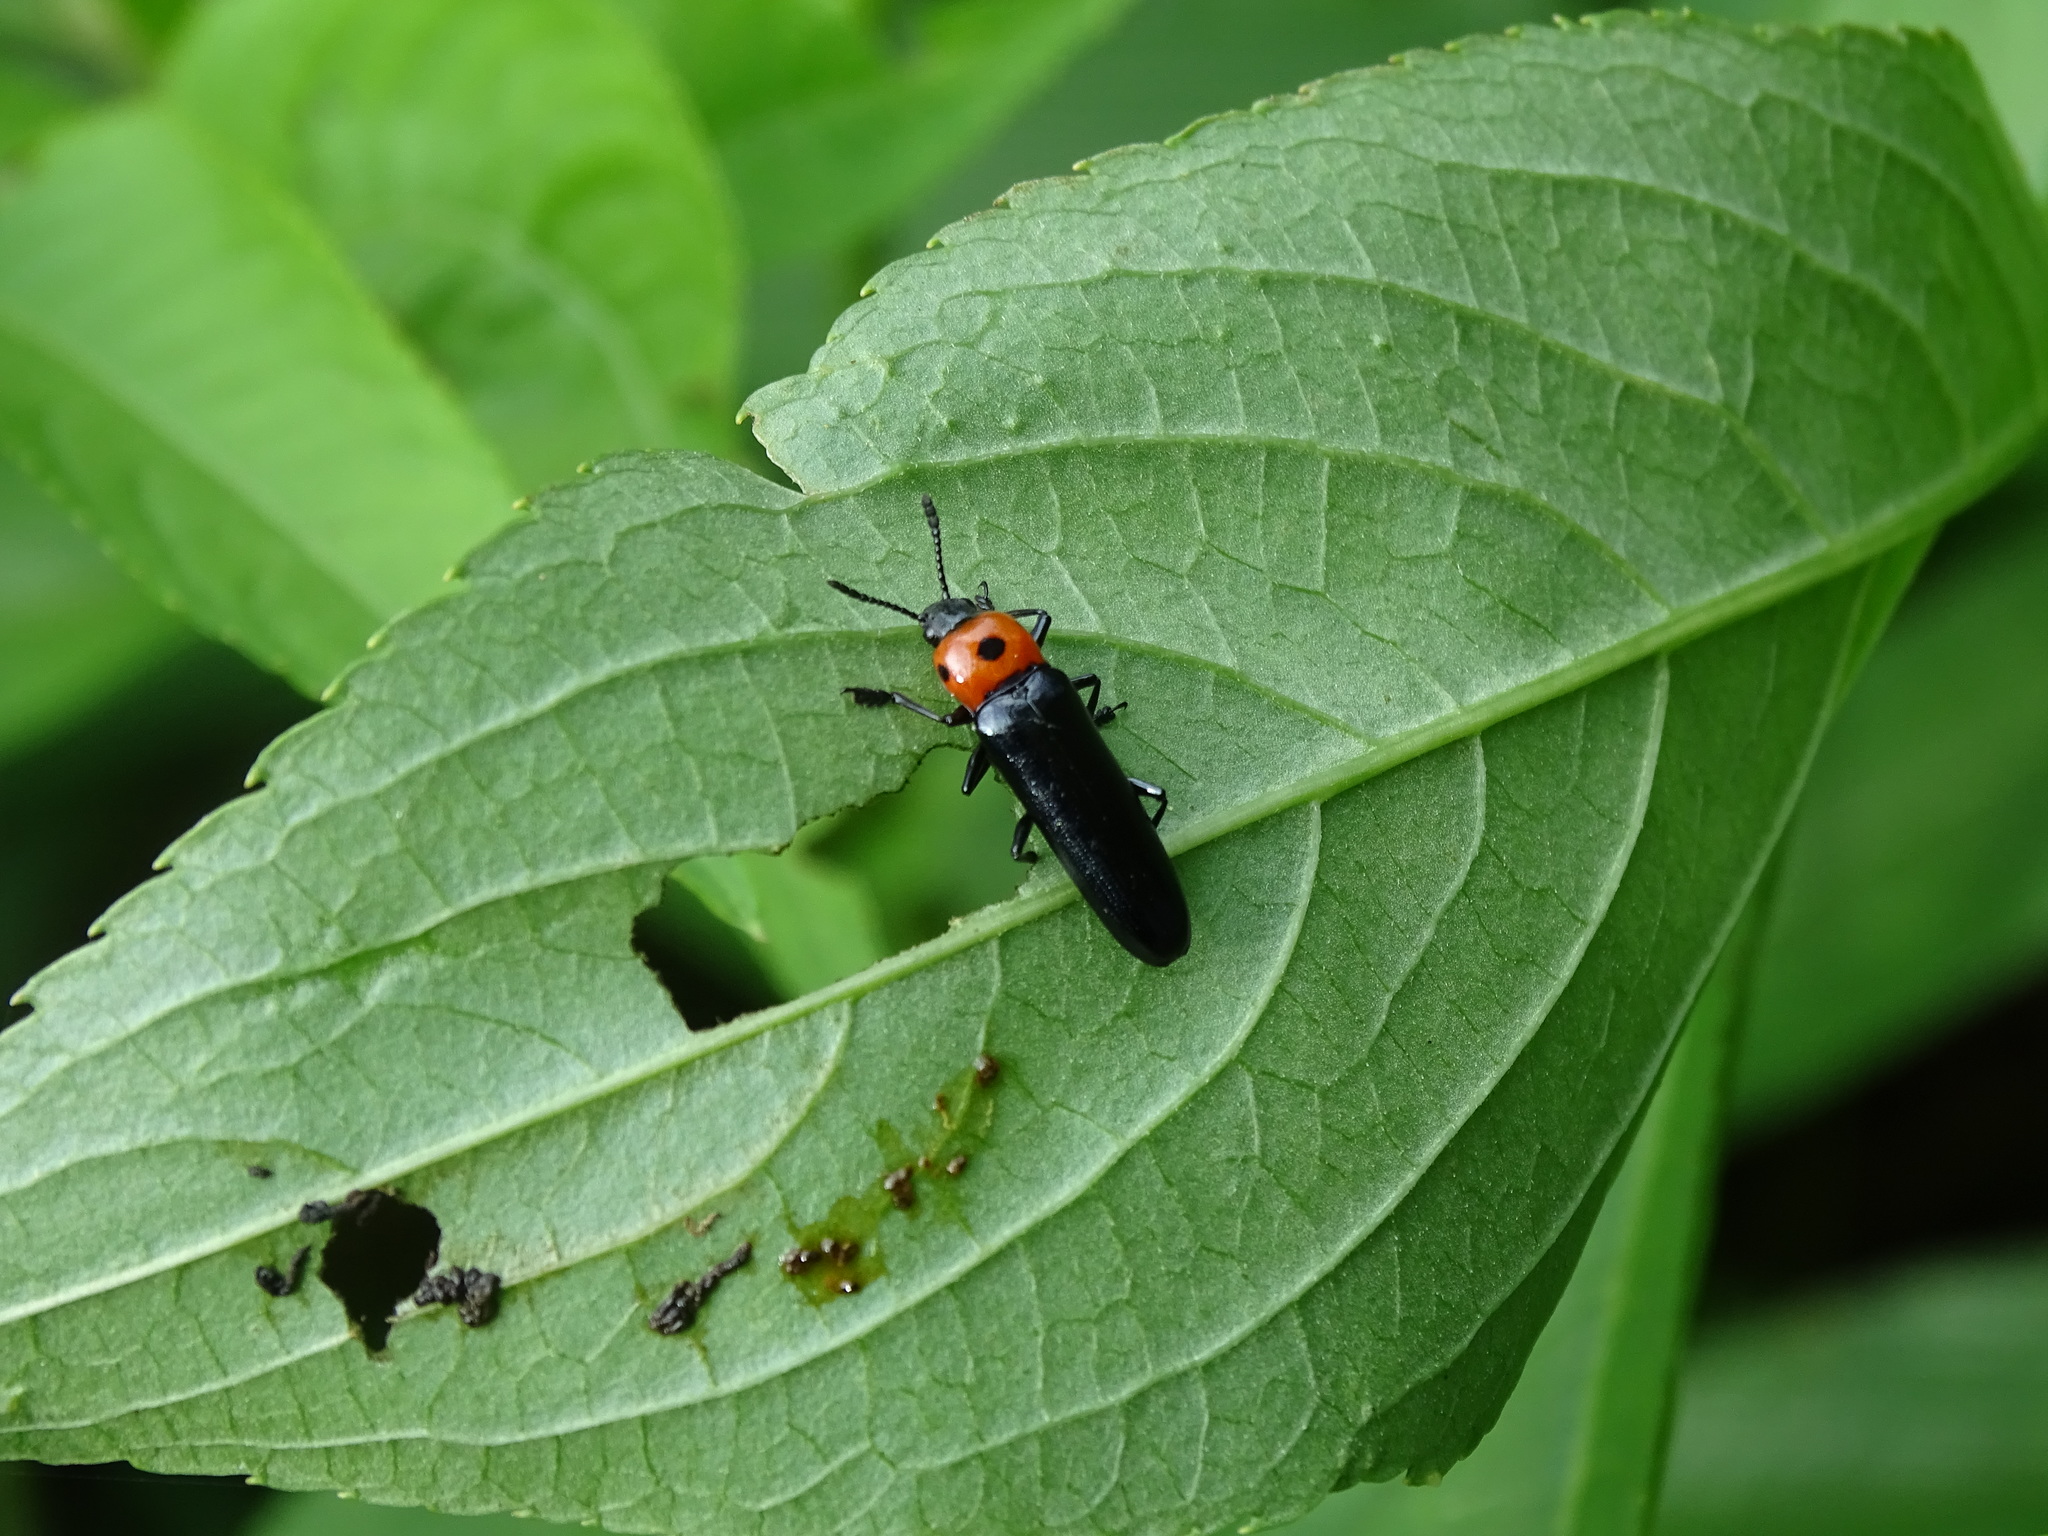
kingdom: Animalia
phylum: Arthropoda
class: Insecta
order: Coleoptera
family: Erotylidae
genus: Tetraphala
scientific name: Tetraphala collaris
